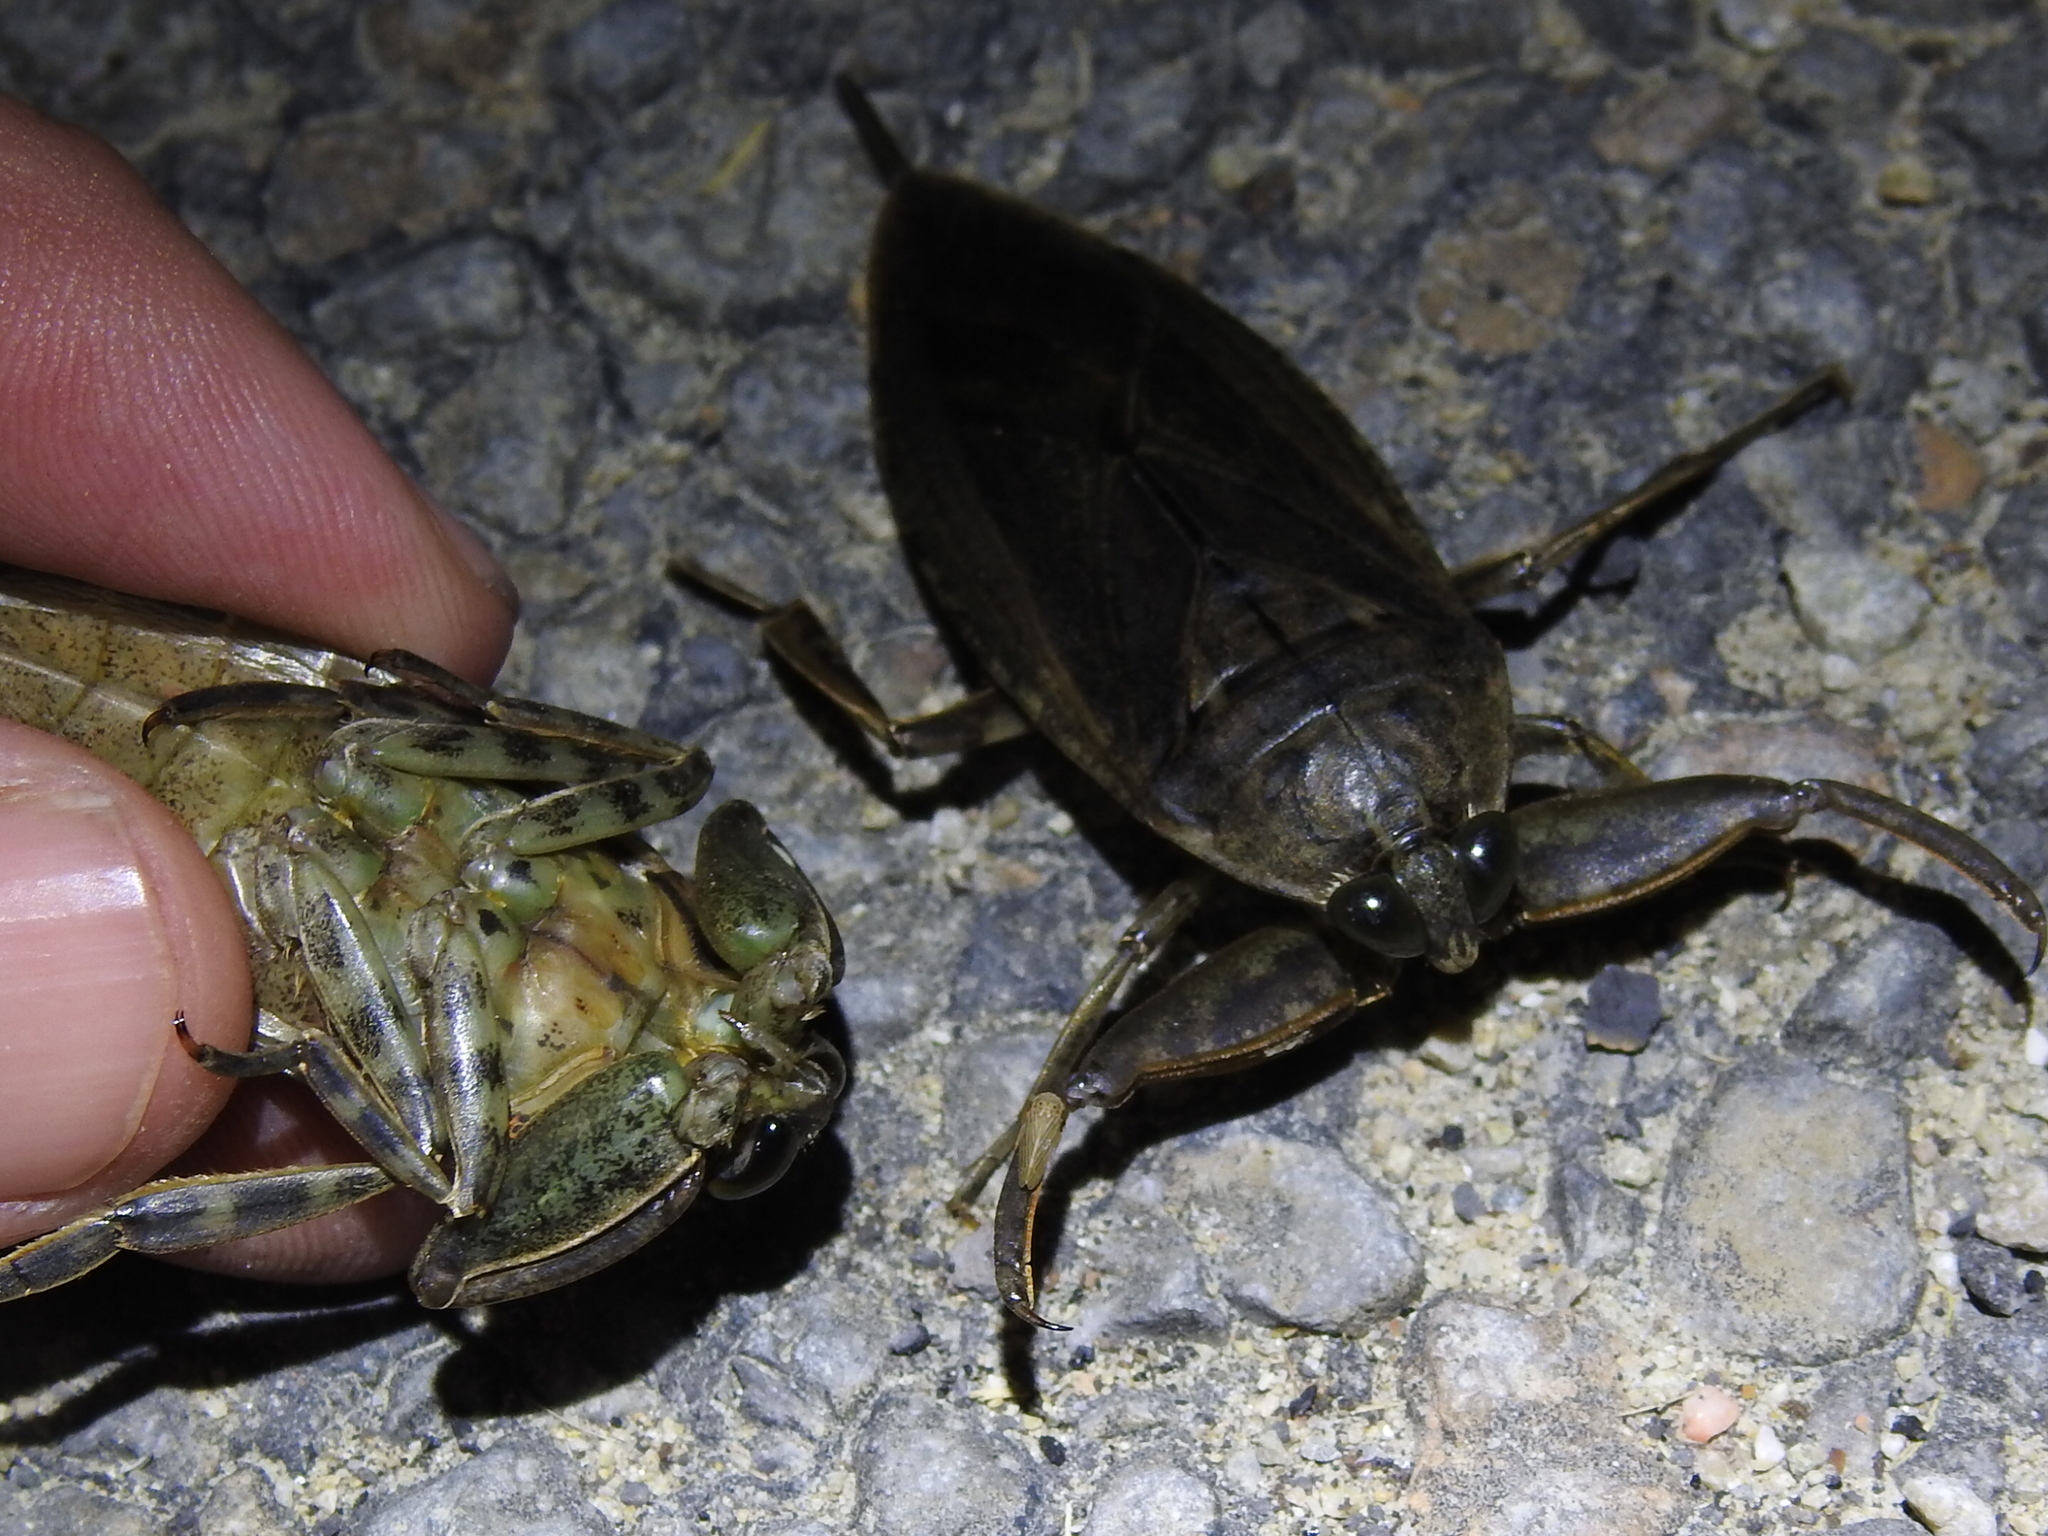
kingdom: Animalia
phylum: Arthropoda
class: Insecta
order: Hemiptera
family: Belostomatidae
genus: Lethocerus
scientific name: Lethocerus uhleri
